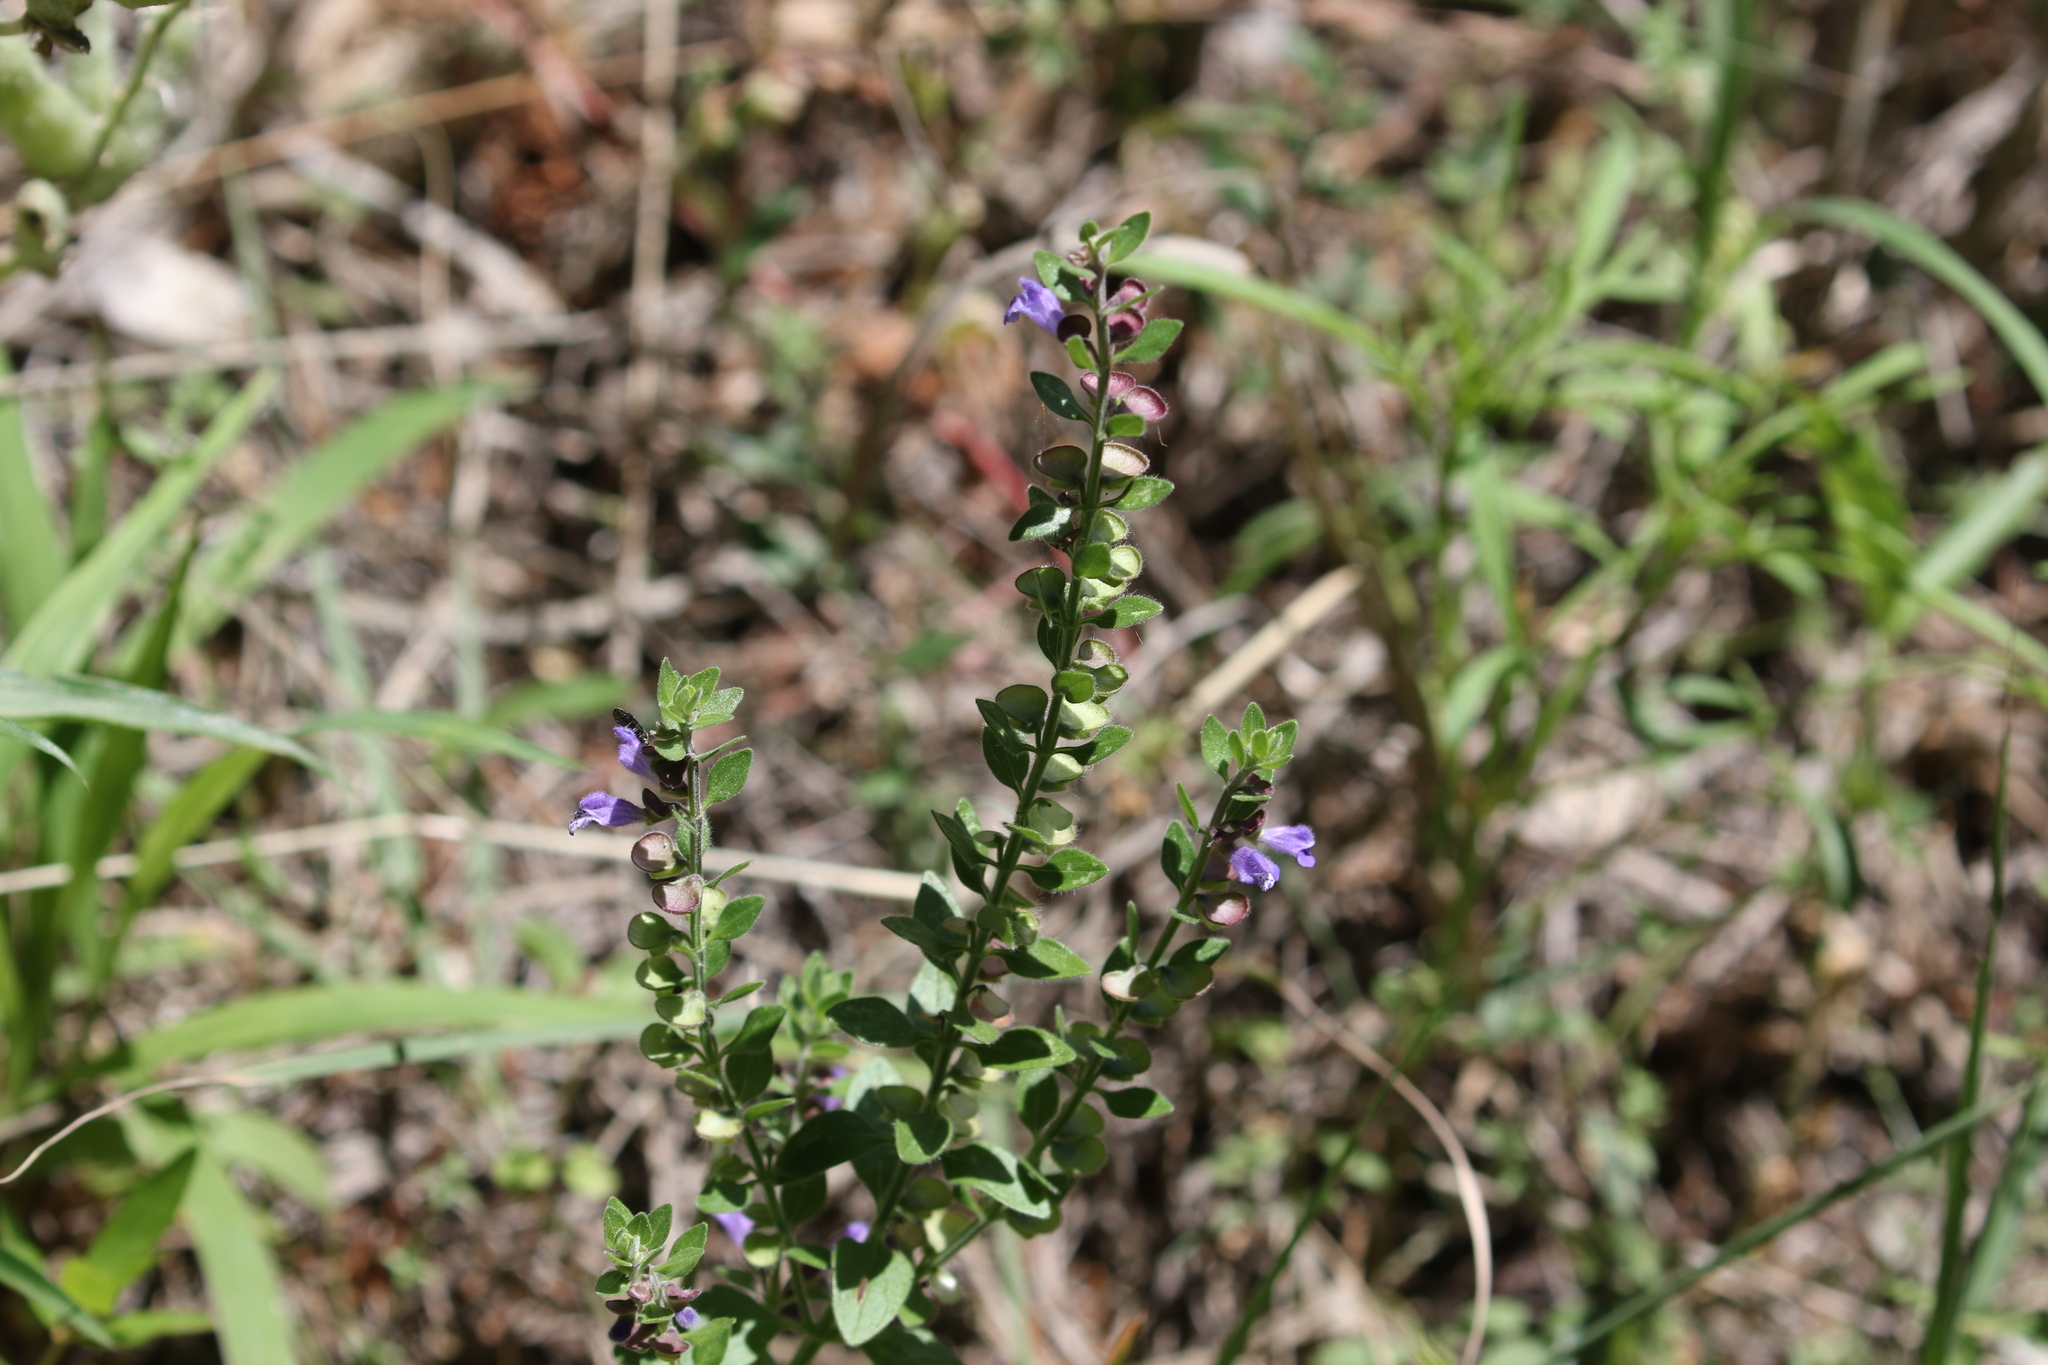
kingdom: Plantae
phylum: Tracheophyta
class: Magnoliopsida
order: Lamiales
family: Lamiaceae
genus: Scutellaria
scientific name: Scutellaria drummondii
